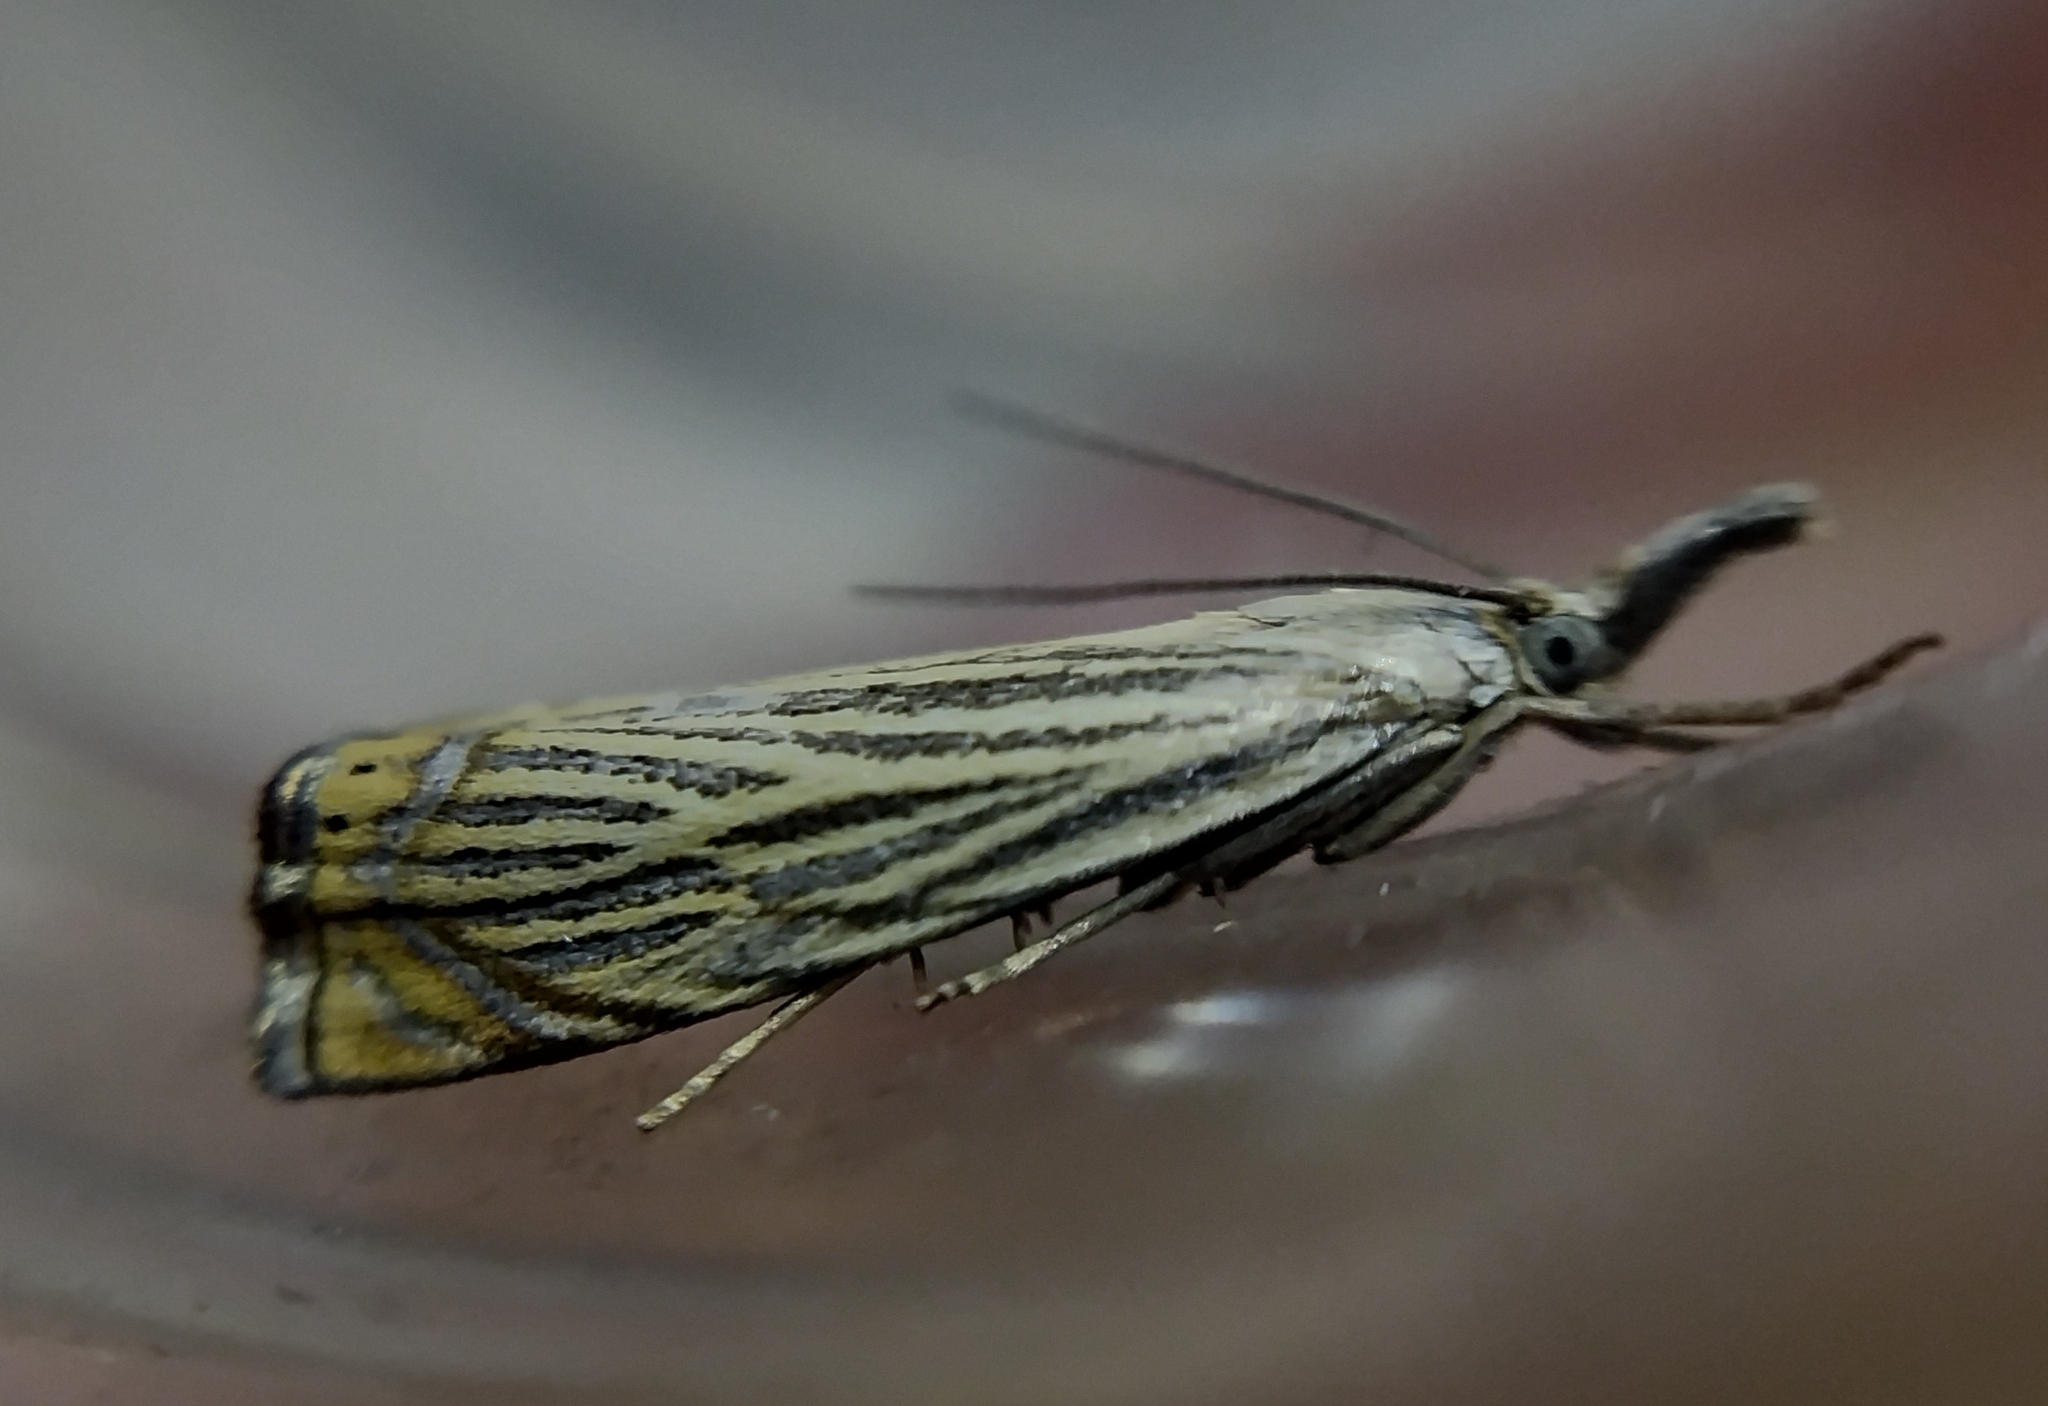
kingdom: Animalia
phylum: Arthropoda
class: Insecta
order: Lepidoptera
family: Crambidae
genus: Chrysoteuchia
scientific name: Chrysoteuchia culmella
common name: Garden grass-veneer
